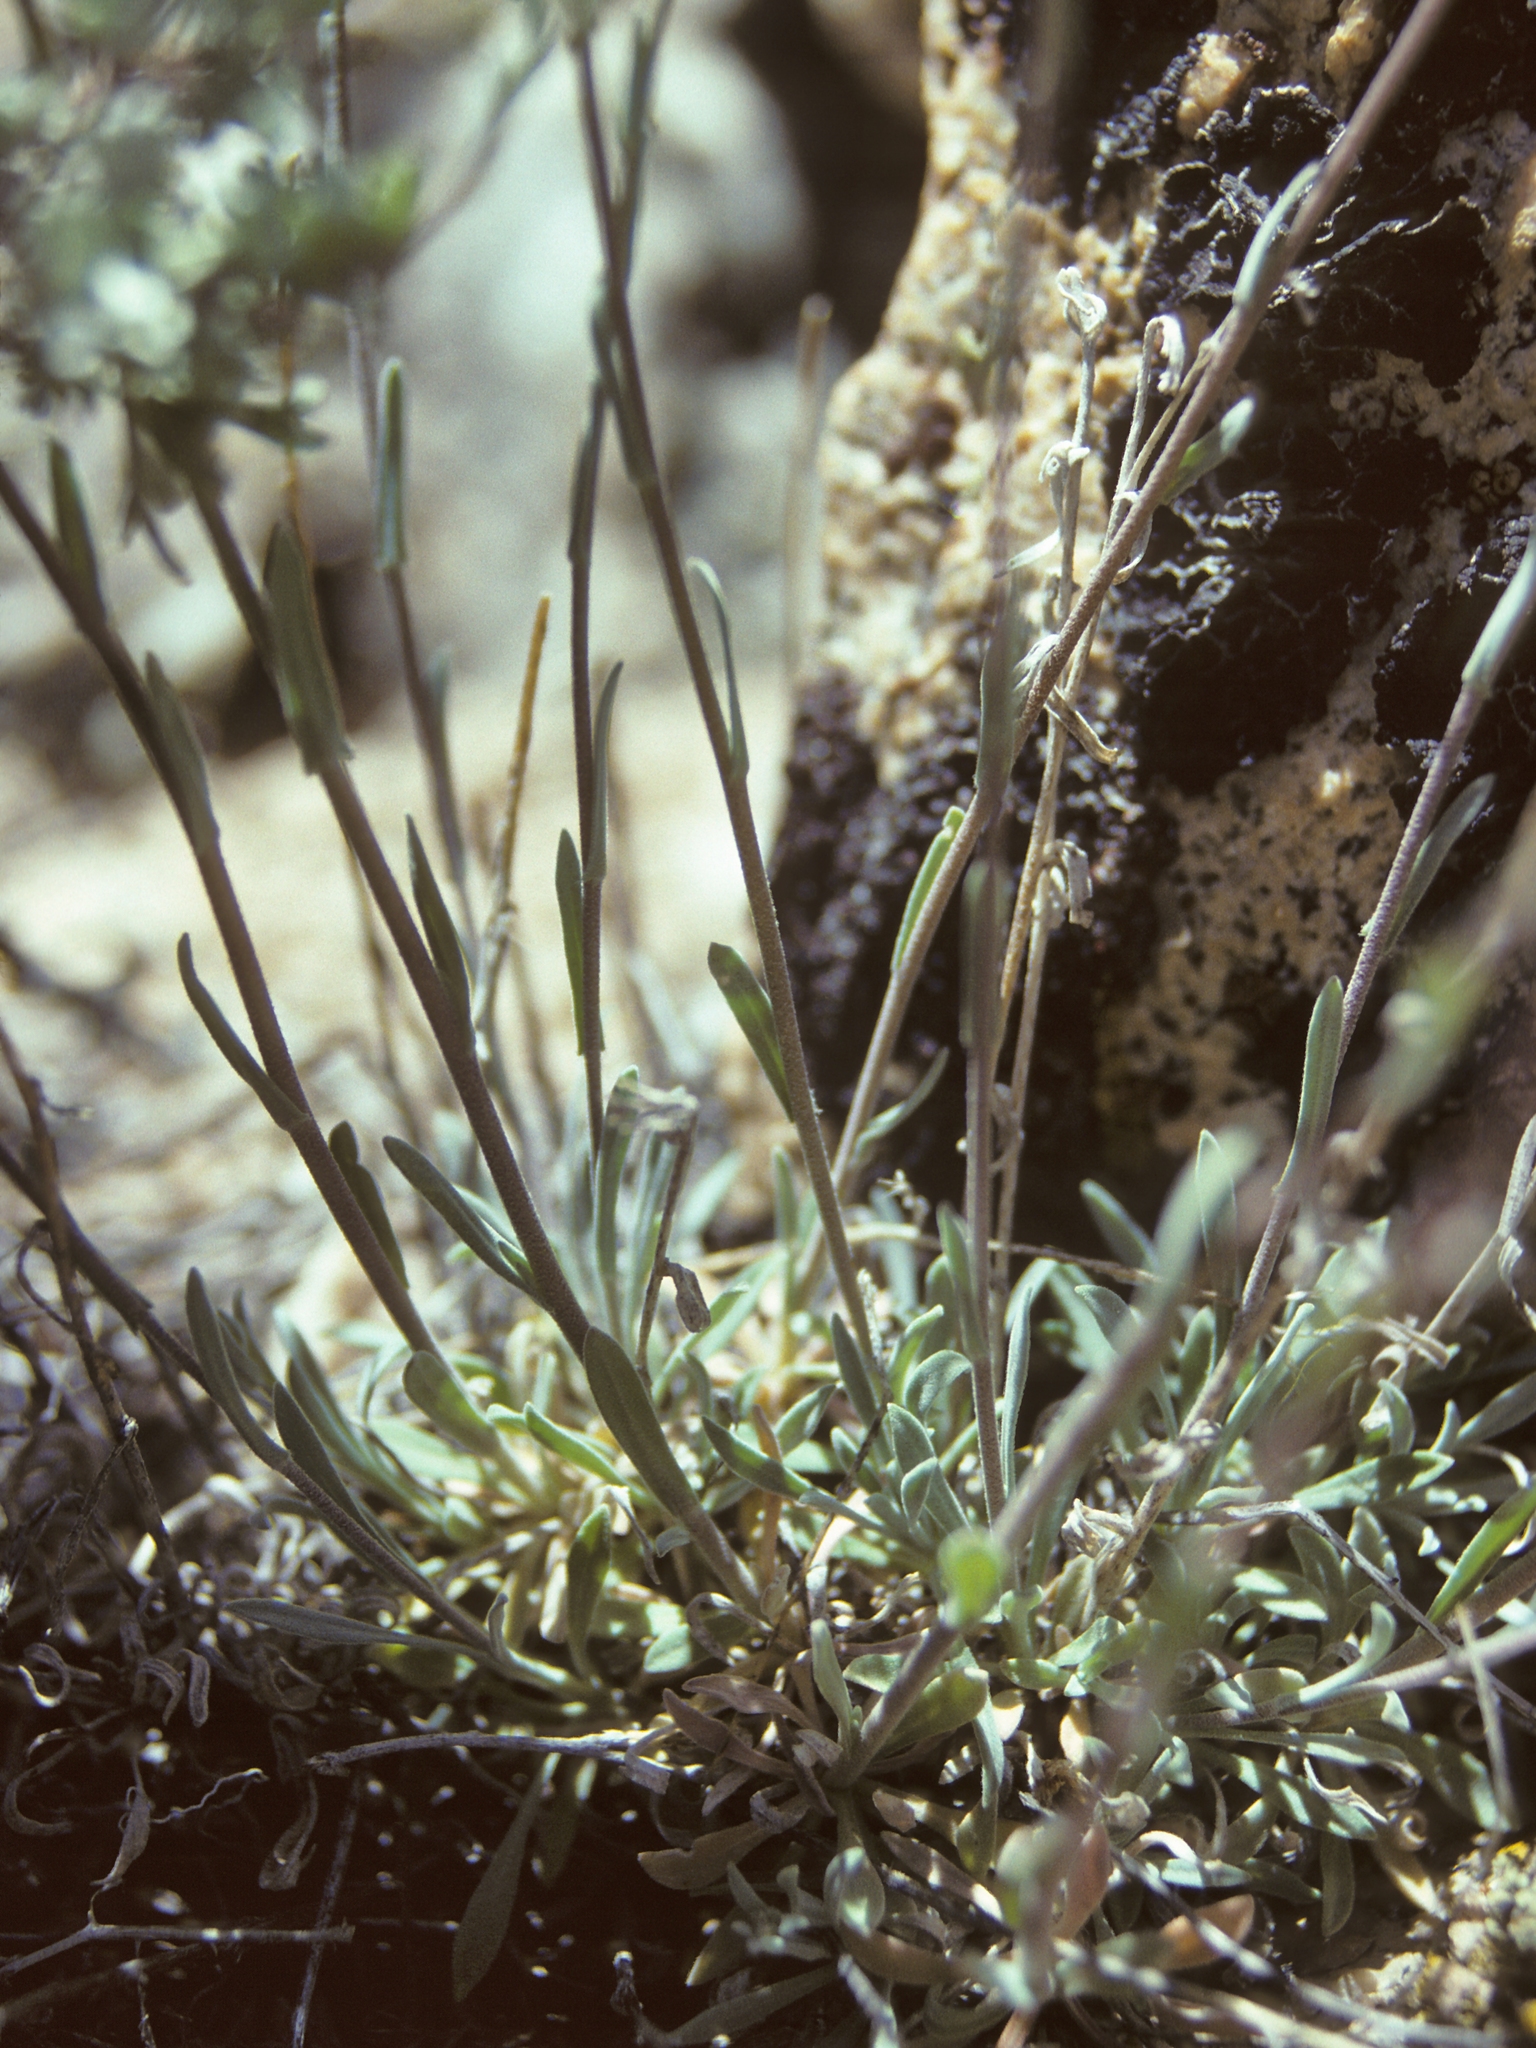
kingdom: Plantae
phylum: Tracheophyta
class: Magnoliopsida
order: Brassicales
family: Brassicaceae
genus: Boechera
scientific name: Boechera bodiensis
